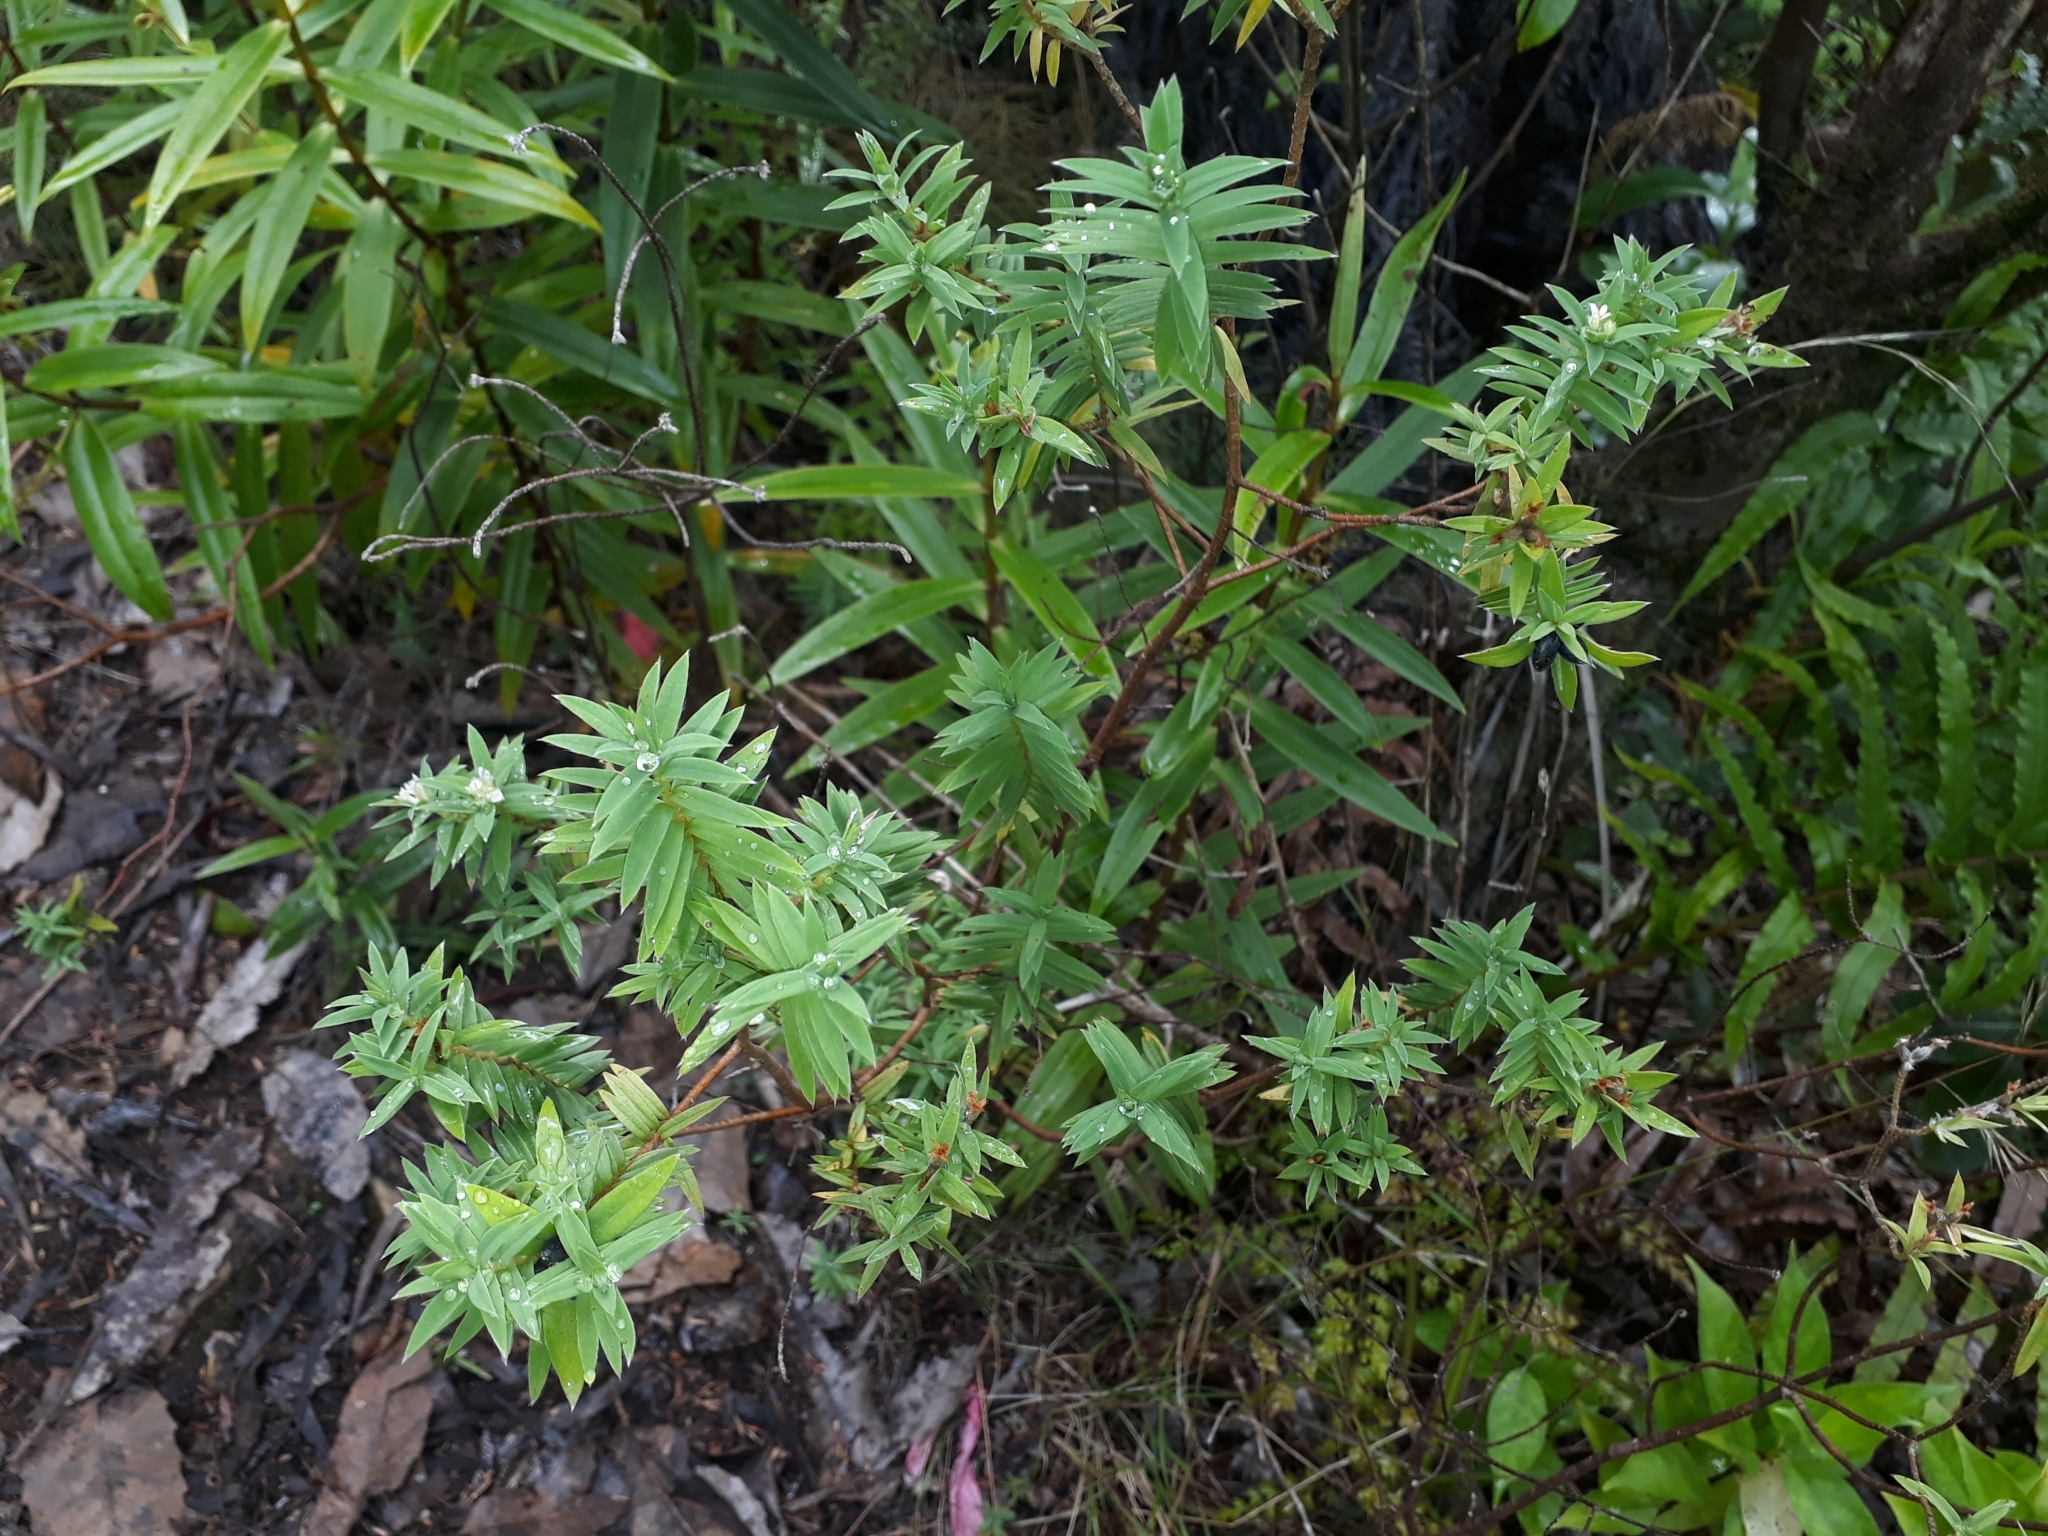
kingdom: Plantae
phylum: Tracheophyta
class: Magnoliopsida
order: Malvales
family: Thymelaeaceae
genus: Pimelea
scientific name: Pimelea tomentosa
